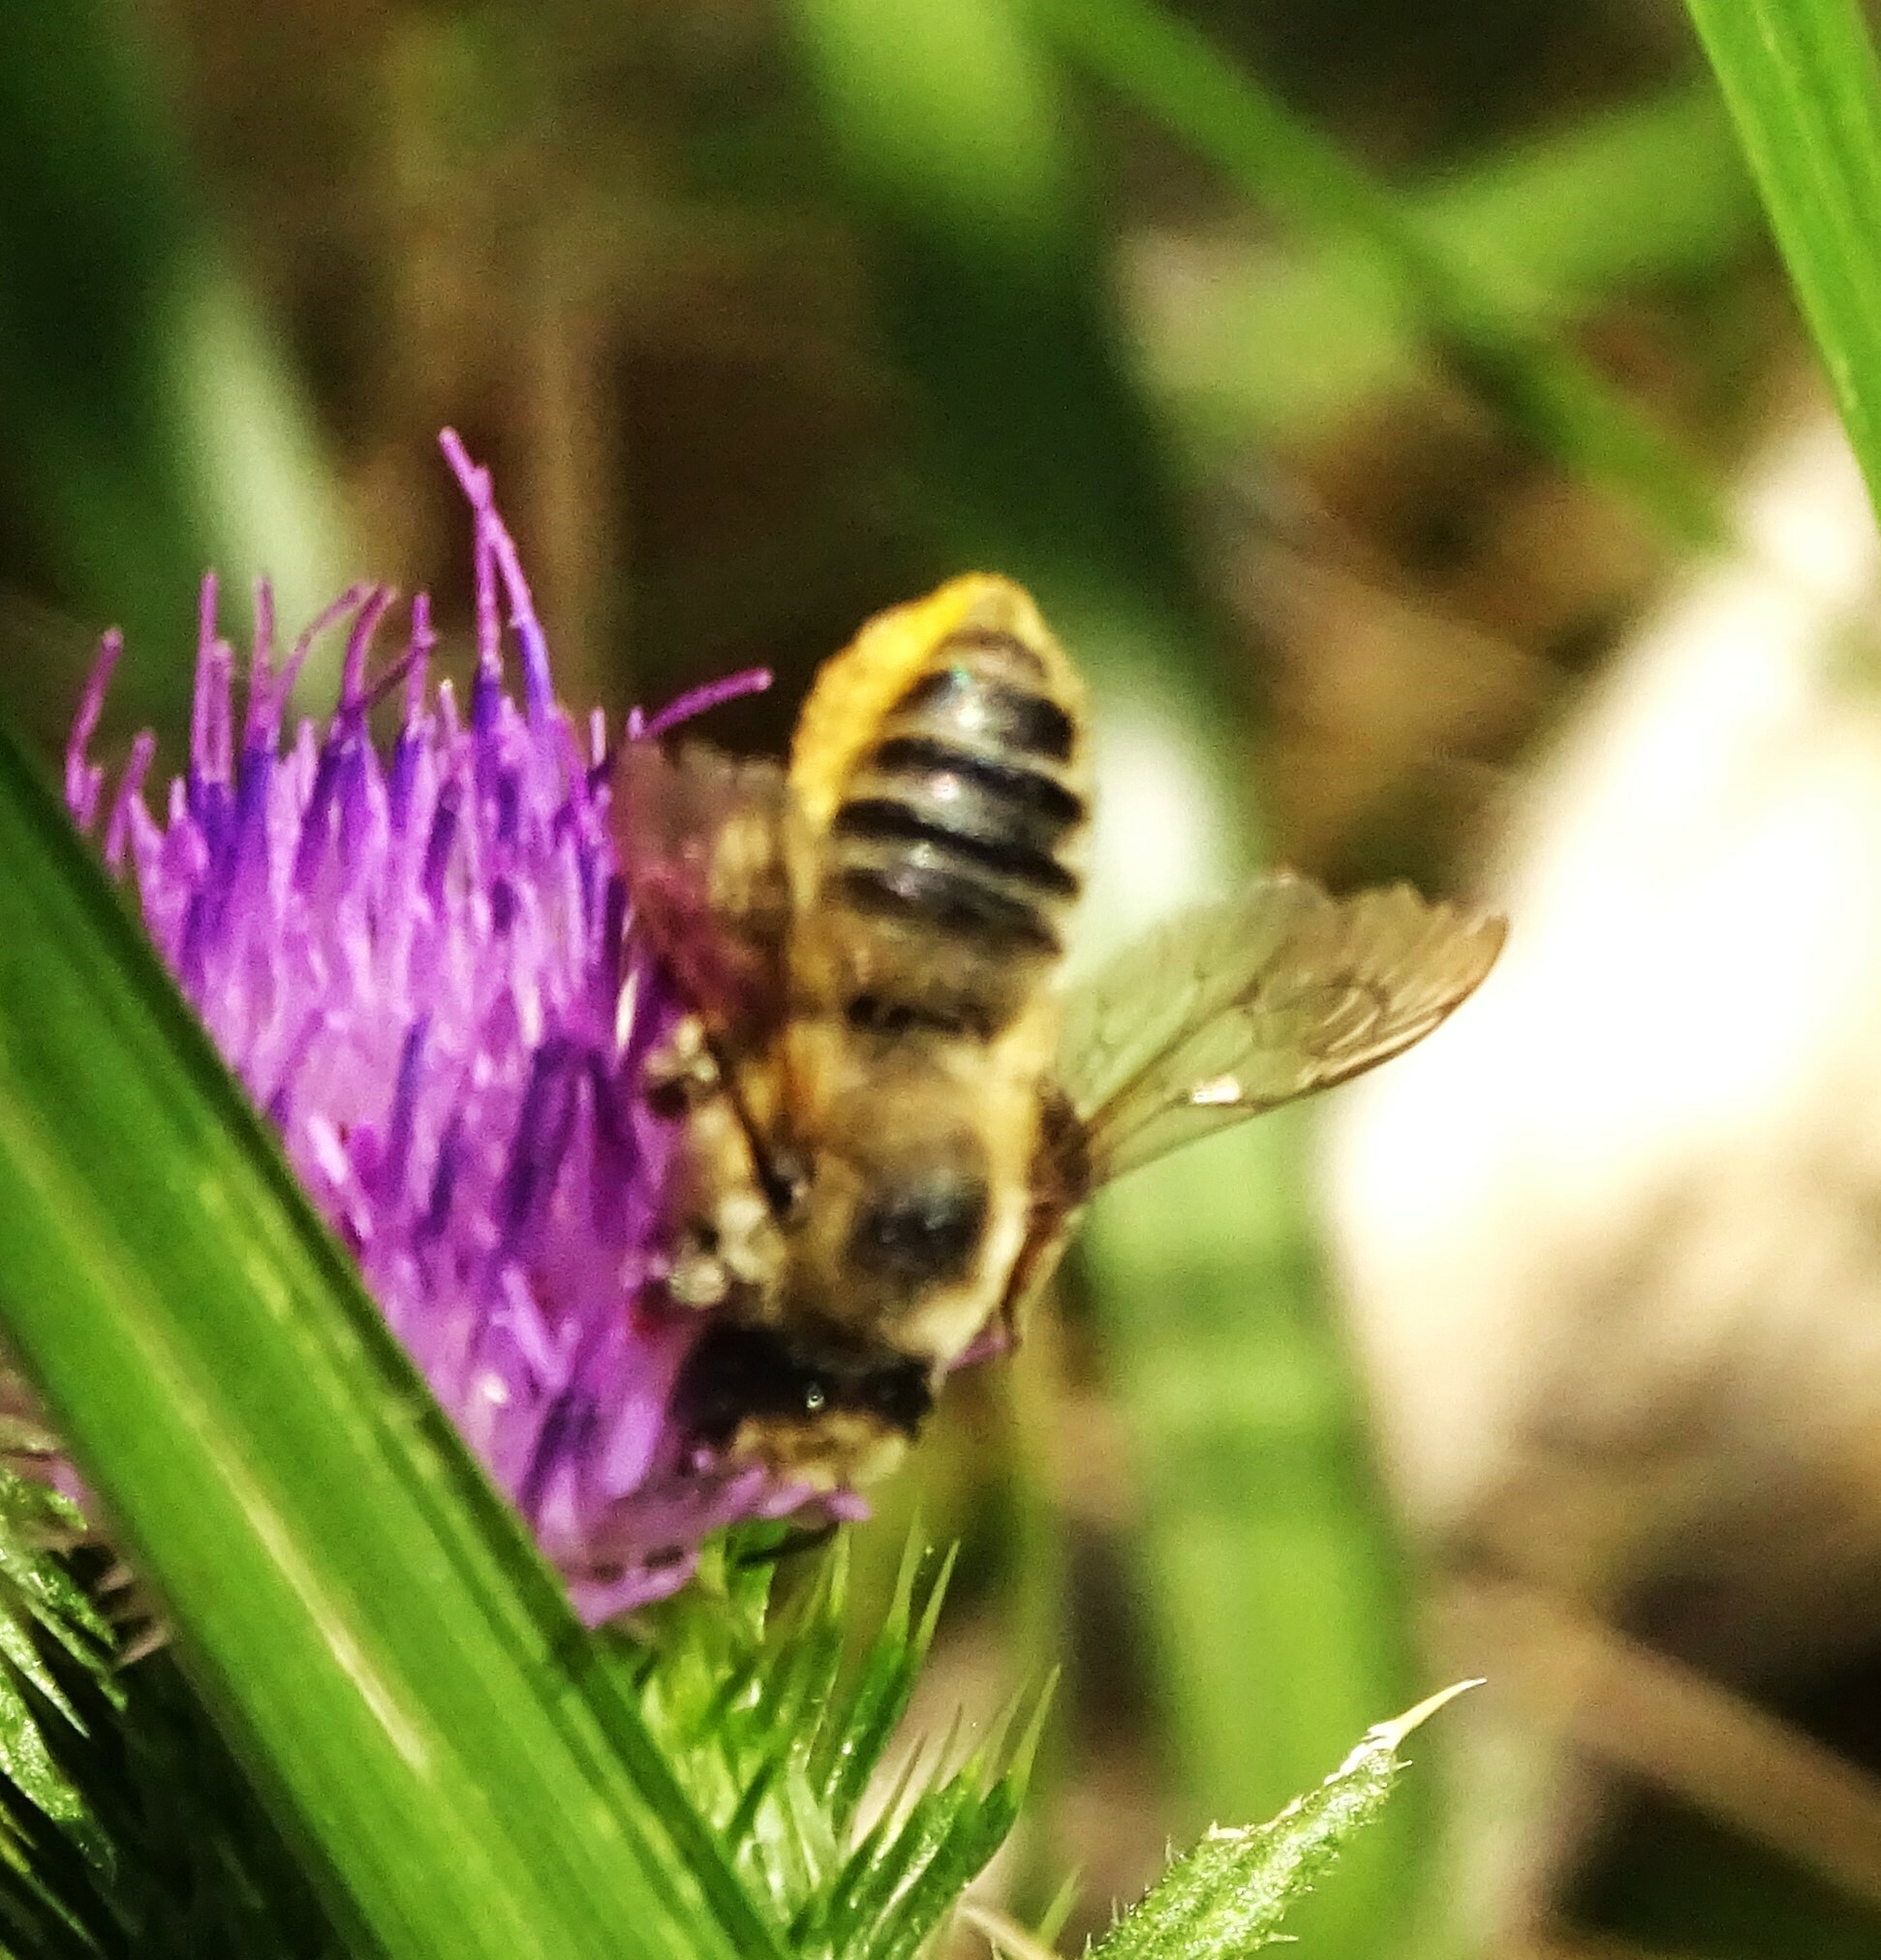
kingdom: Animalia
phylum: Arthropoda
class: Insecta
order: Hymenoptera
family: Megachilidae
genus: Megachile
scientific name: Megachile latimanus
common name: Leafcutting bee
